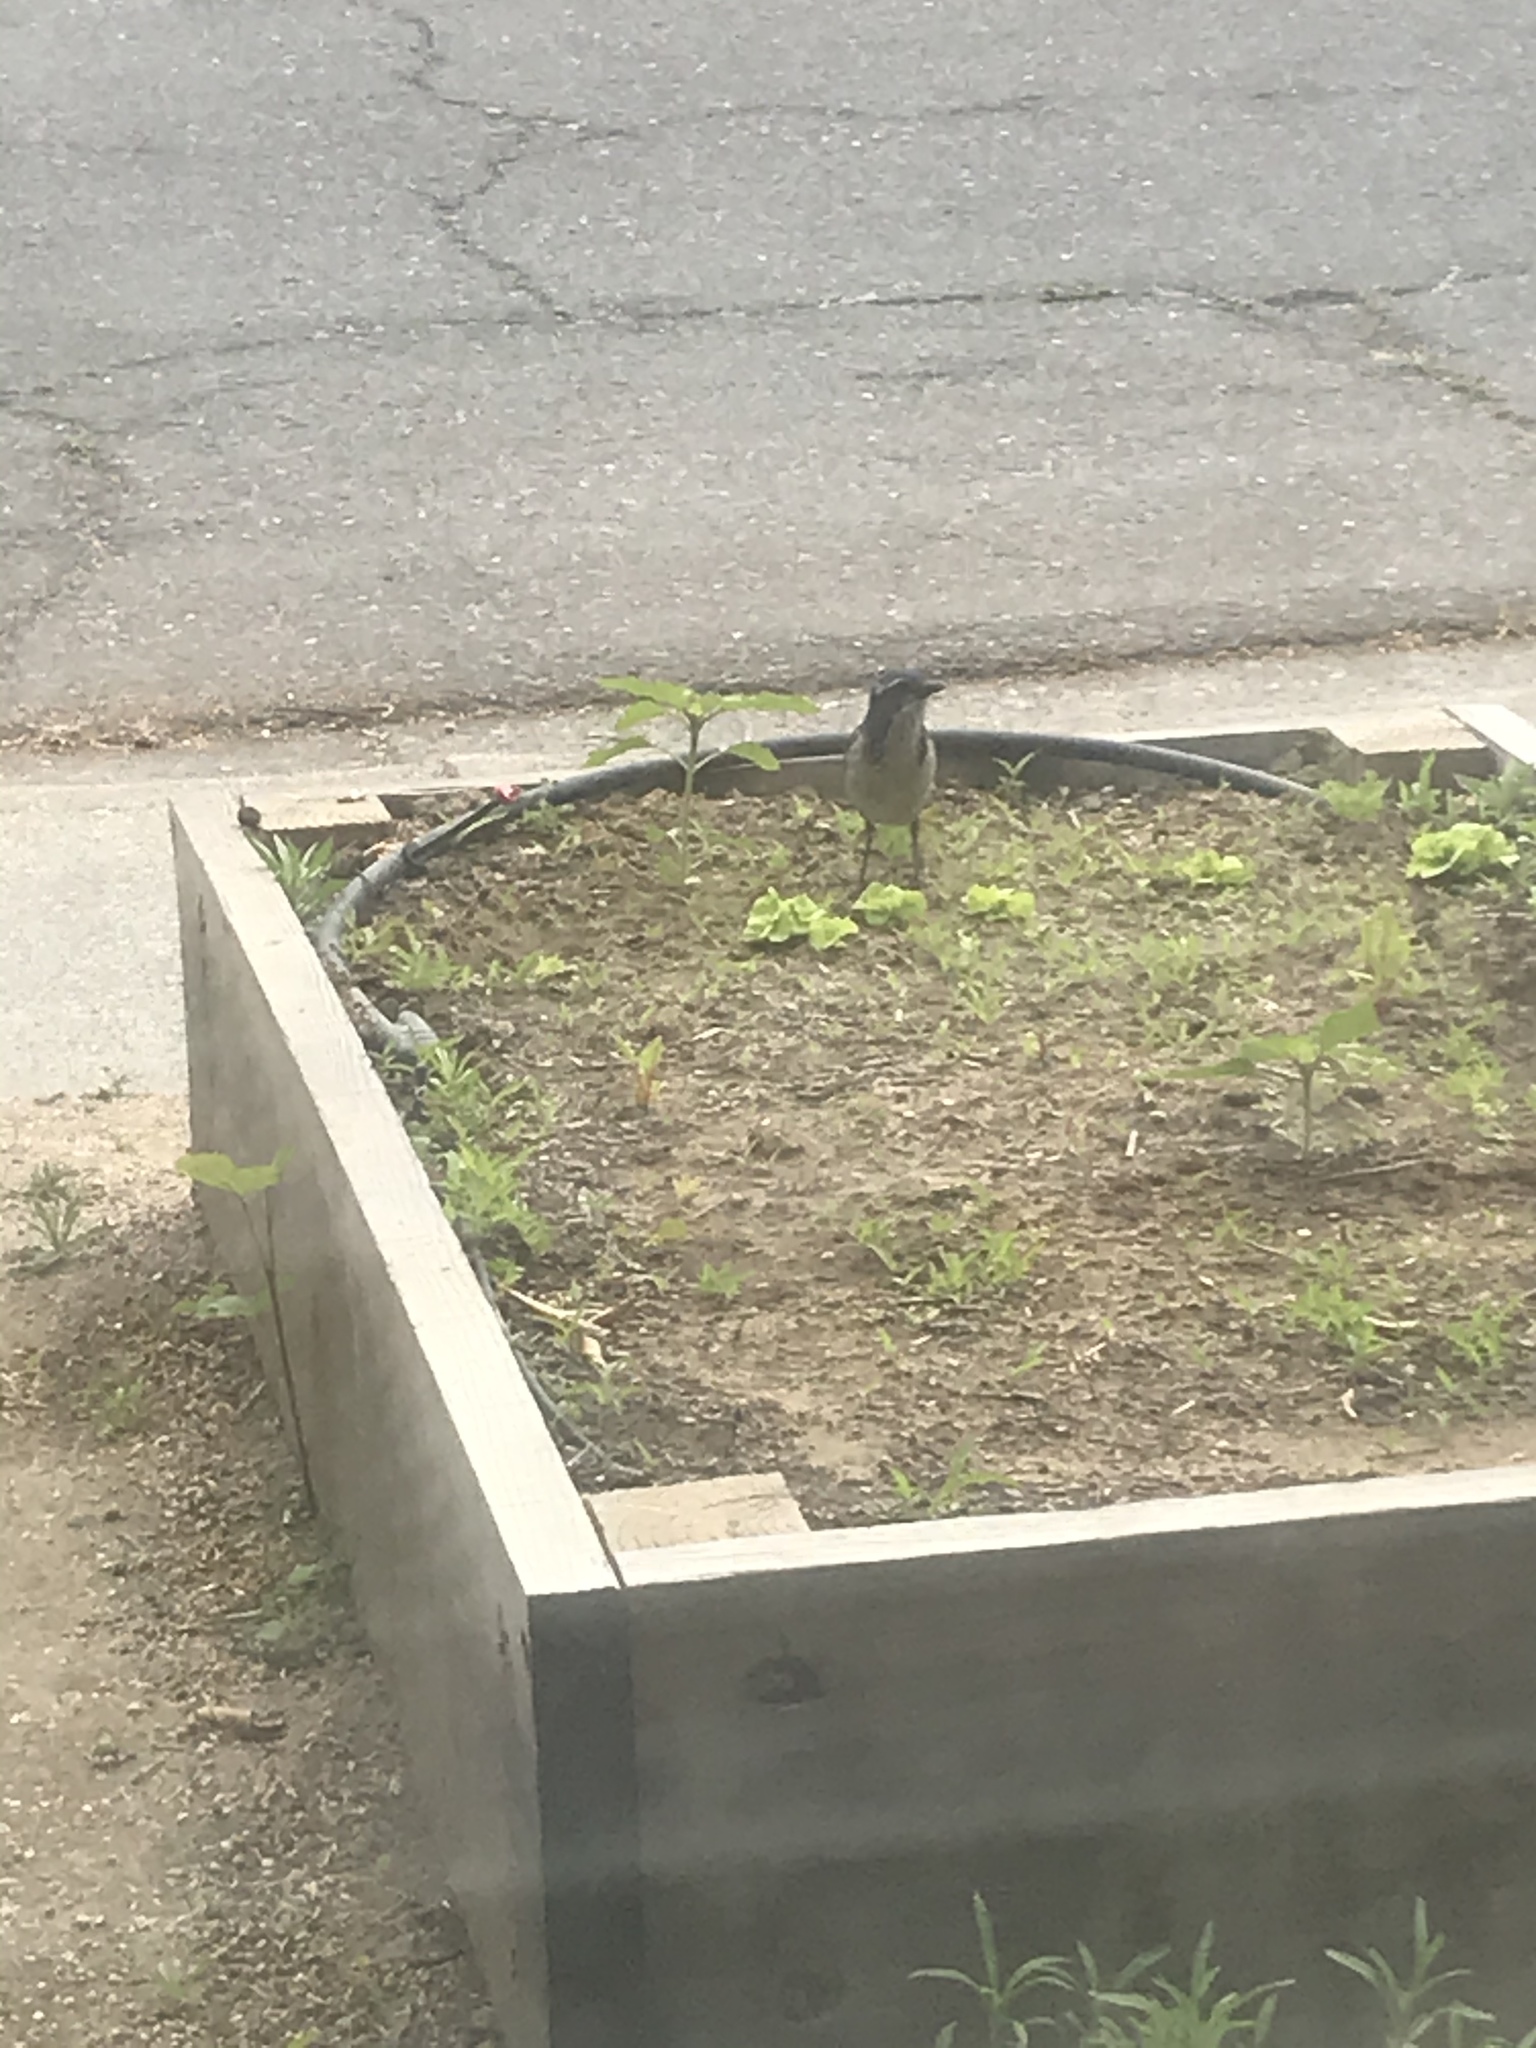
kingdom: Animalia
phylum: Chordata
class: Aves
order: Passeriformes
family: Corvidae
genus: Aphelocoma
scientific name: Aphelocoma californica
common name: California scrub-jay
